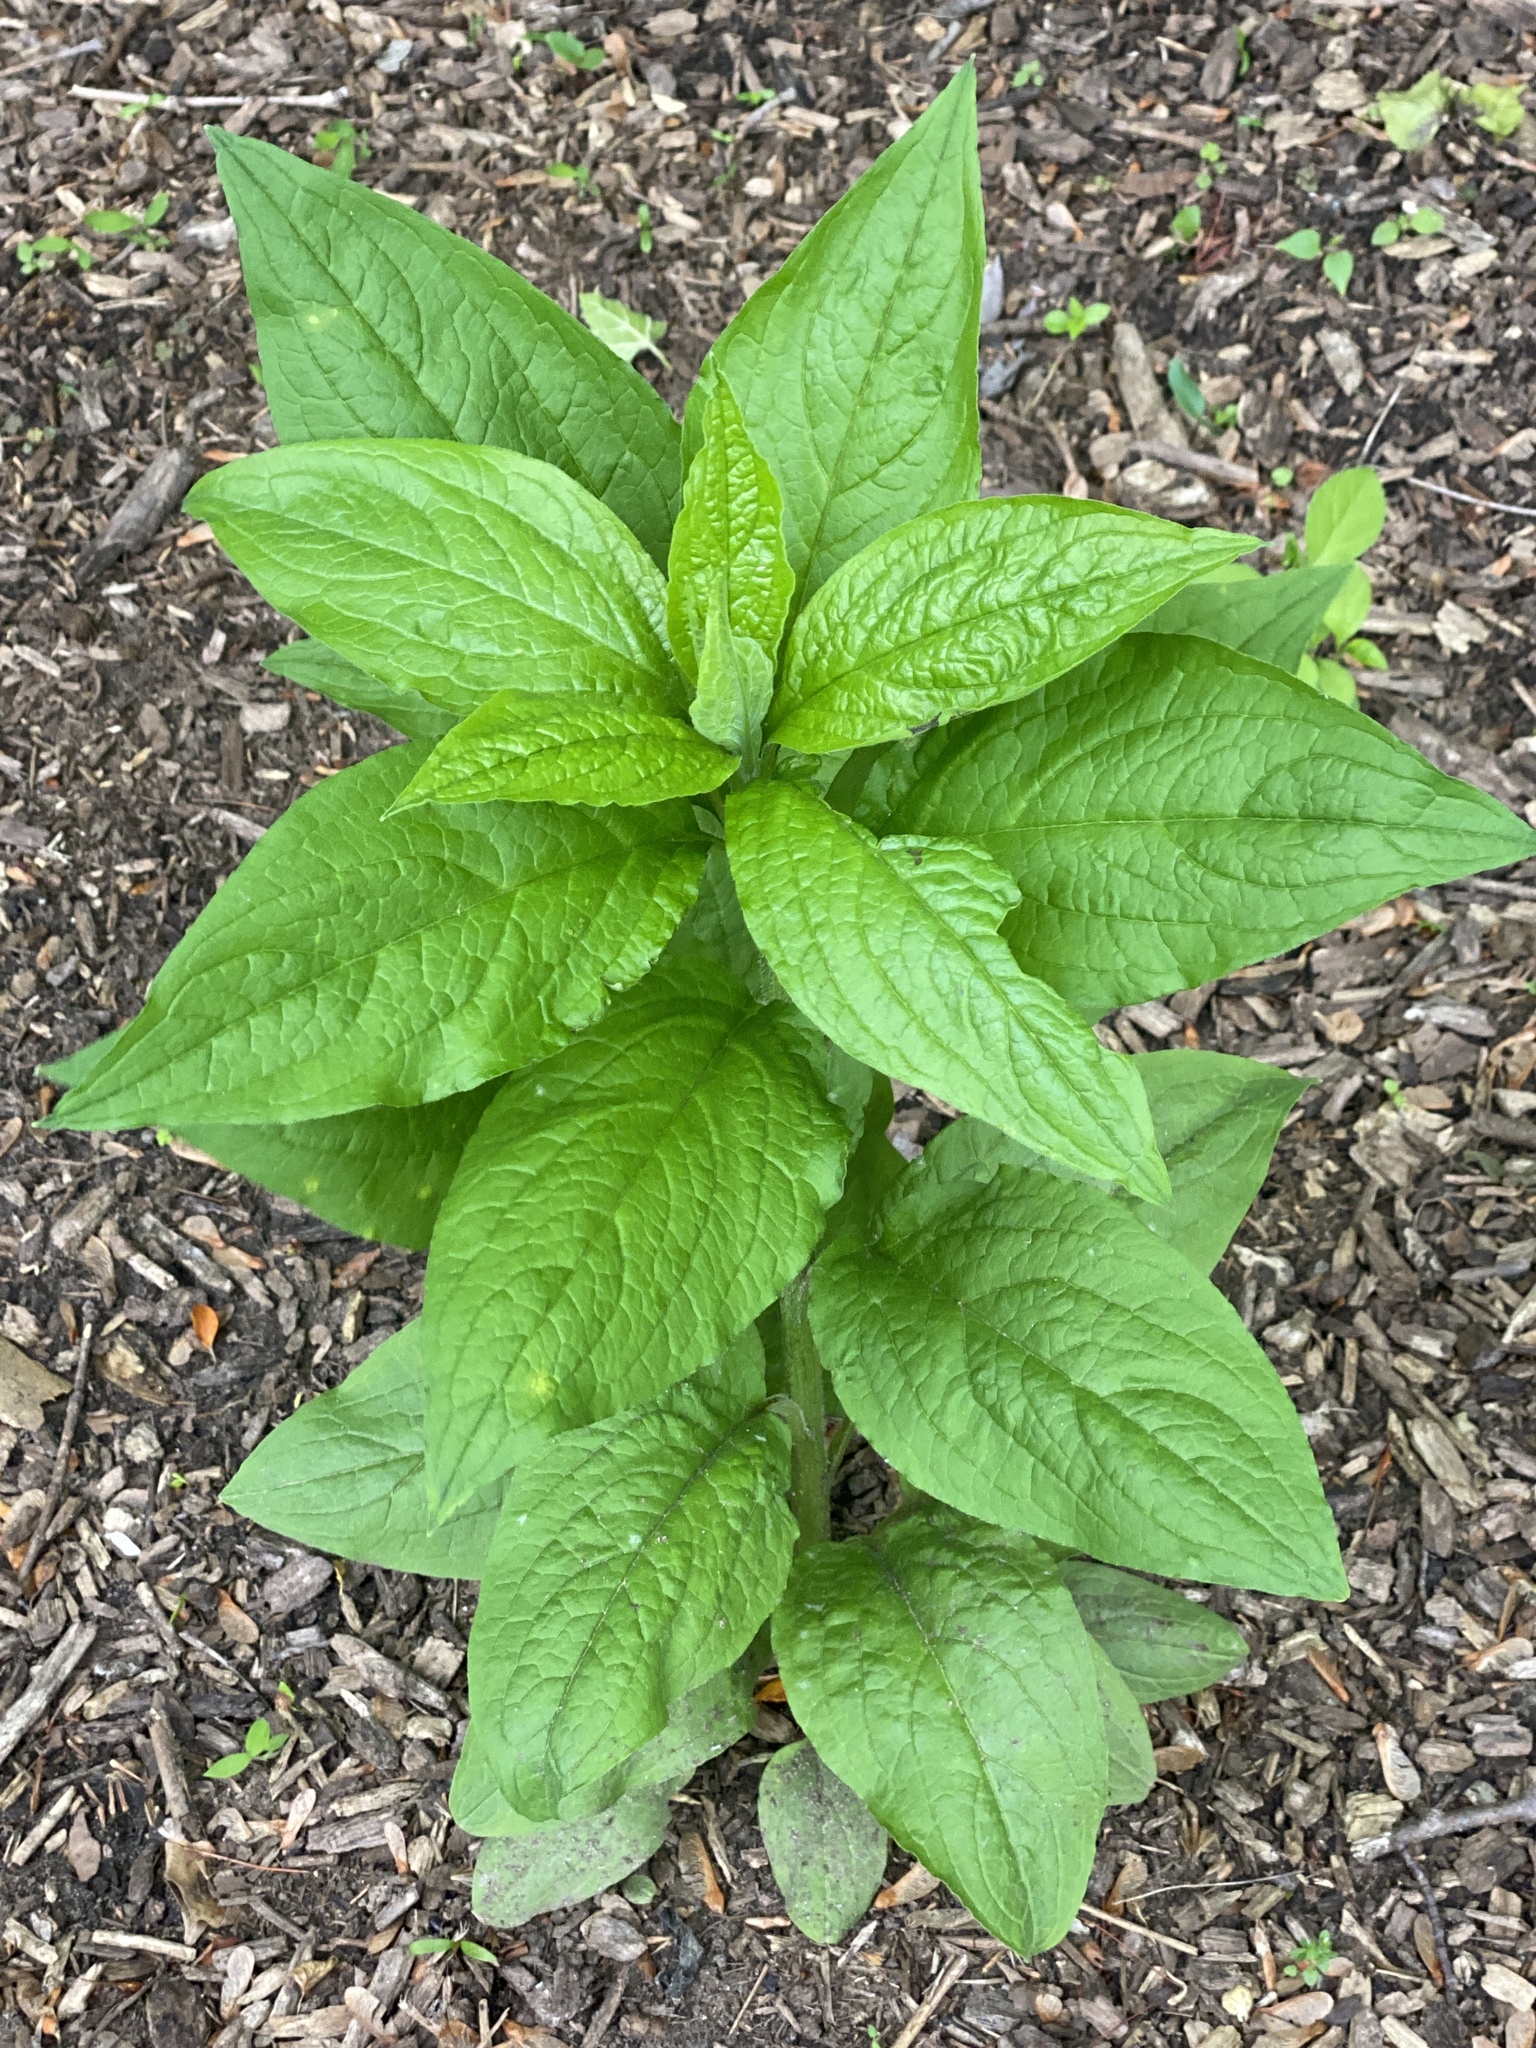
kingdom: Plantae
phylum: Tracheophyta
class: Magnoliopsida
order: Boraginales
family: Boraginaceae
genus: Hackelia
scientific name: Hackelia virginiana
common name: Beggar's-lice
